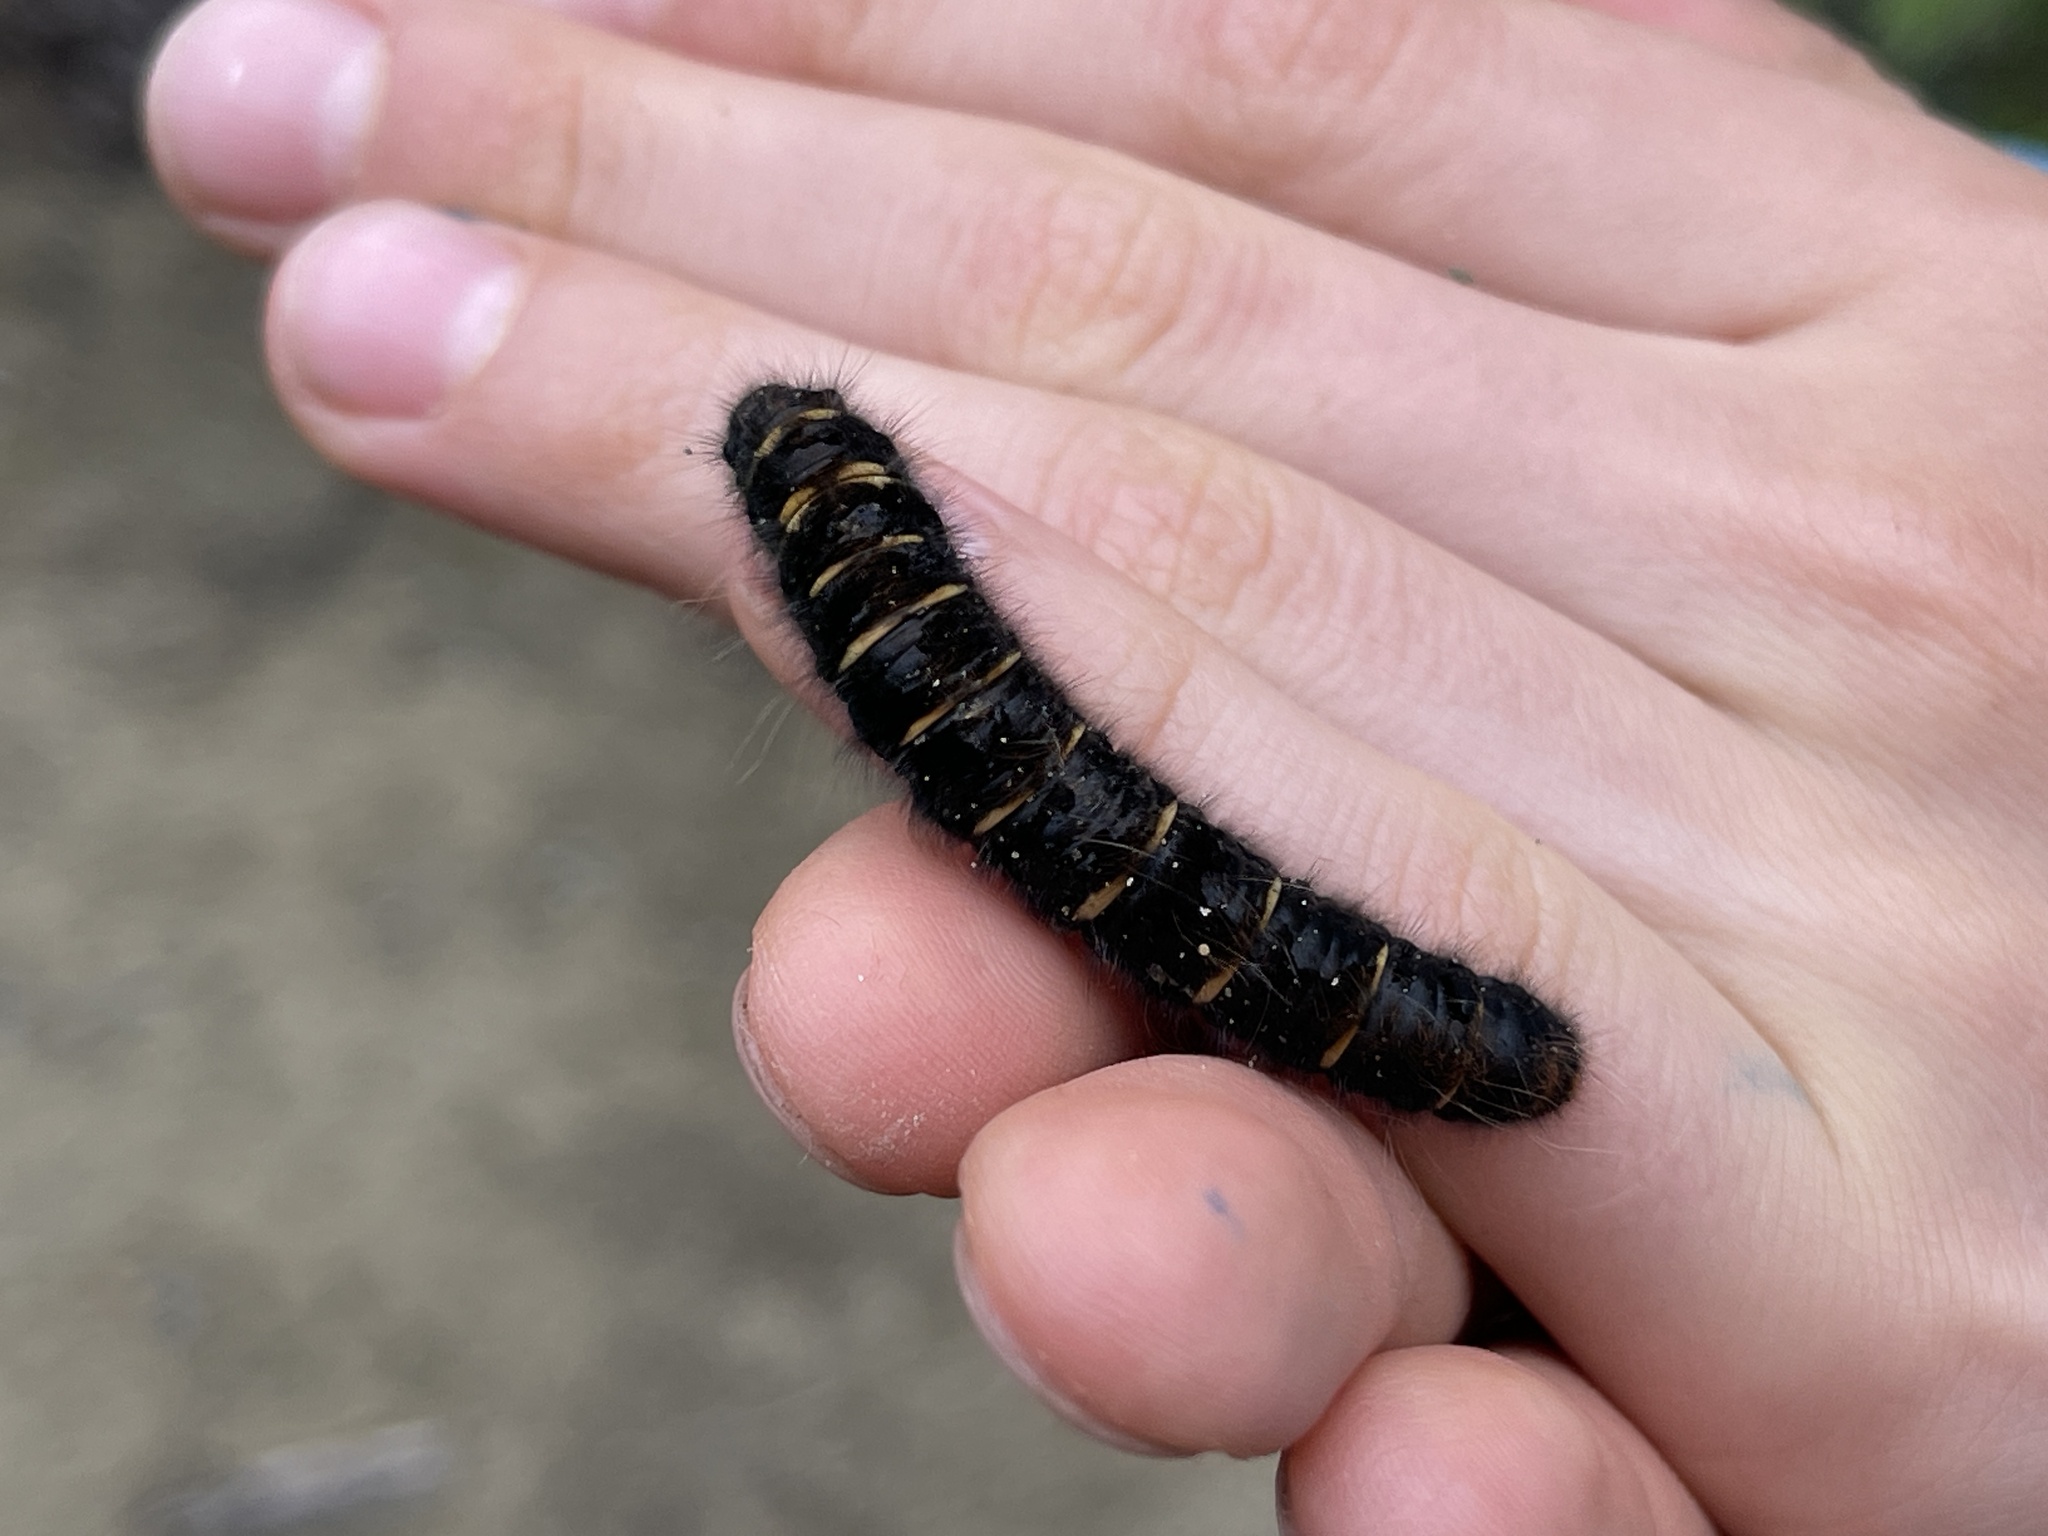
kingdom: Animalia
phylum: Arthropoda
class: Insecta
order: Lepidoptera
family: Lasiocampidae
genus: Macrothylacia
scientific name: Macrothylacia rubi
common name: Fox moth
